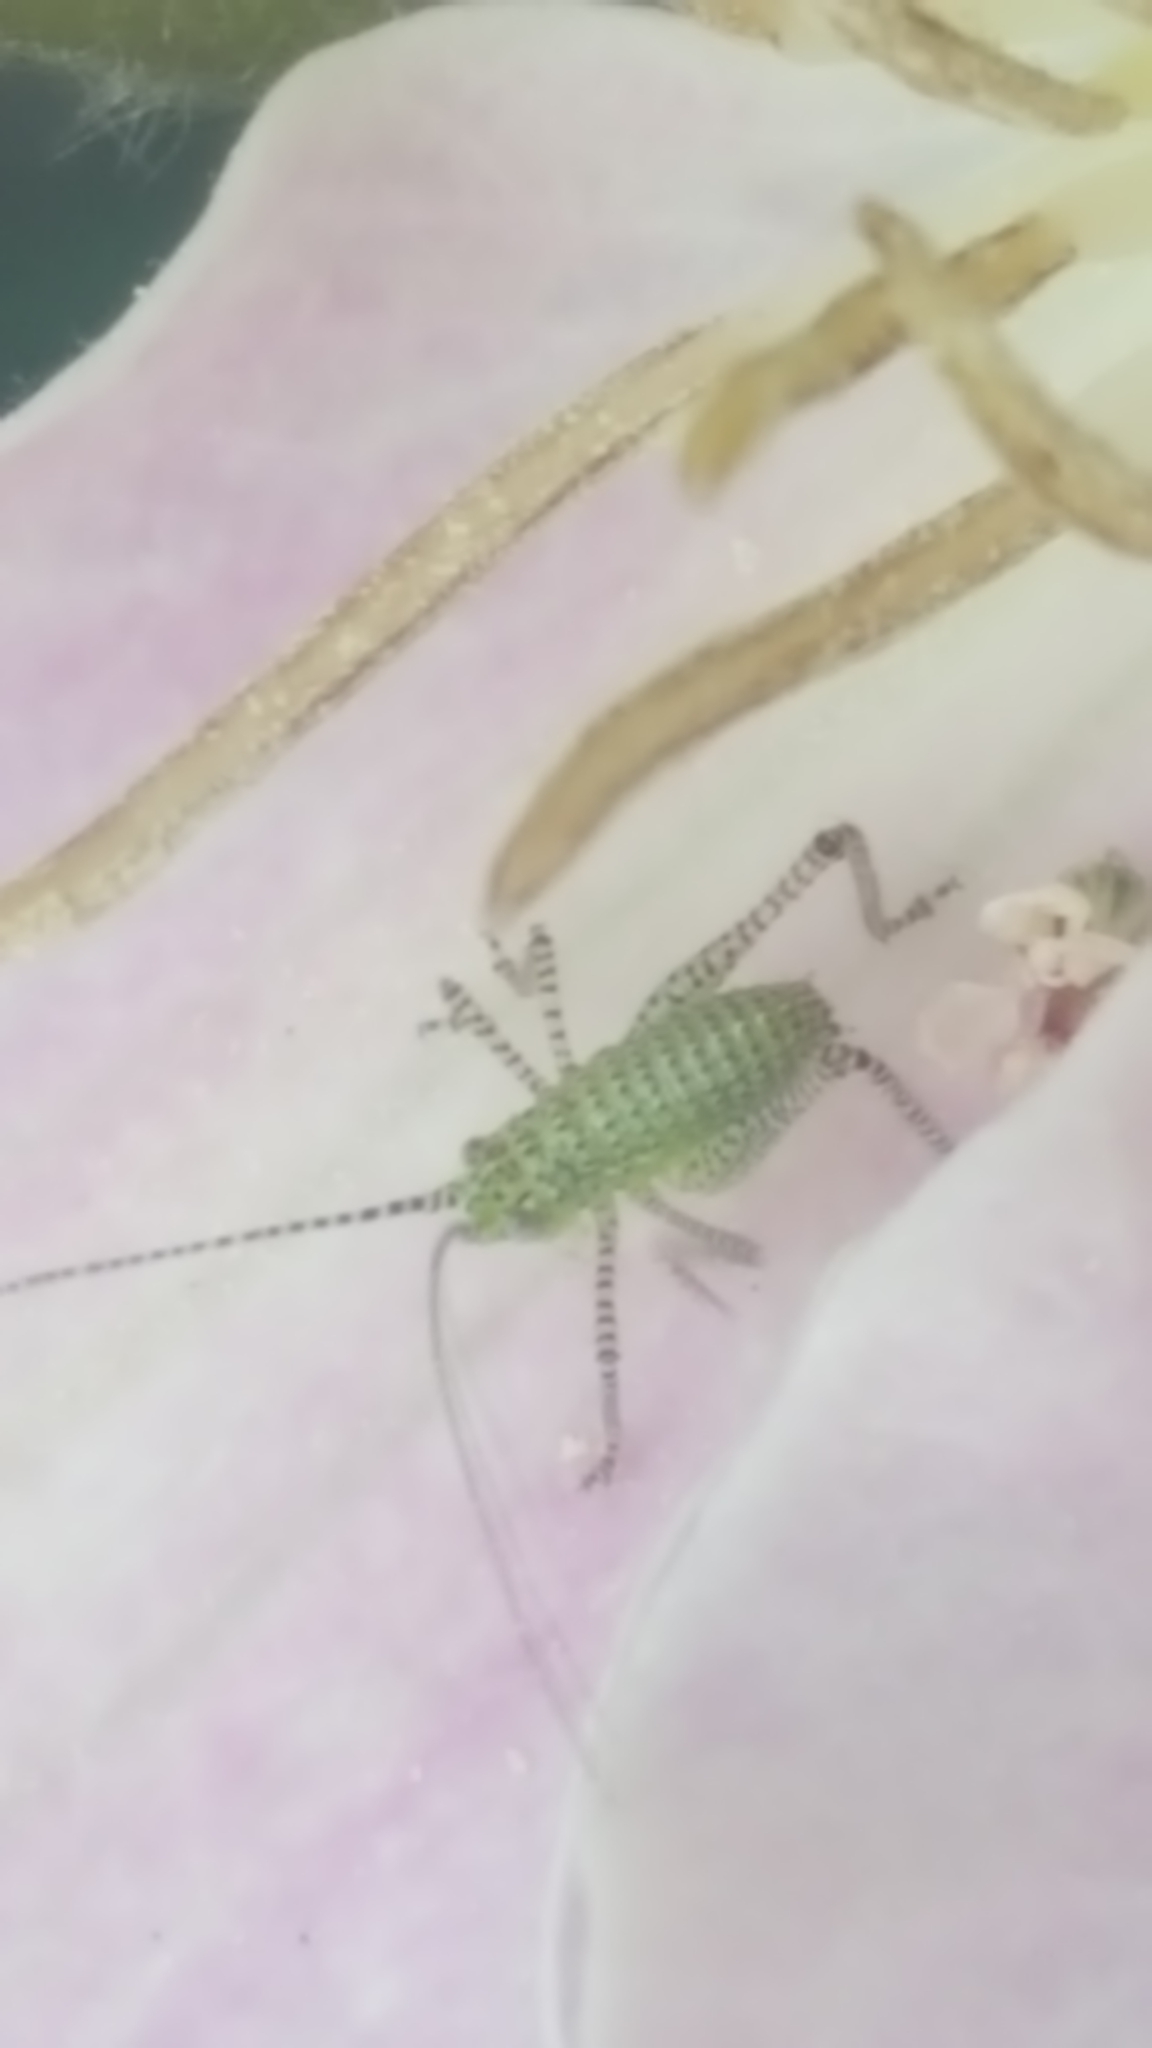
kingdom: Animalia
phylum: Arthropoda
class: Insecta
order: Orthoptera
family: Tettigoniidae
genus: Leptophyes
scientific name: Leptophyes punctatissima
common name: Speckled bush-cricket
